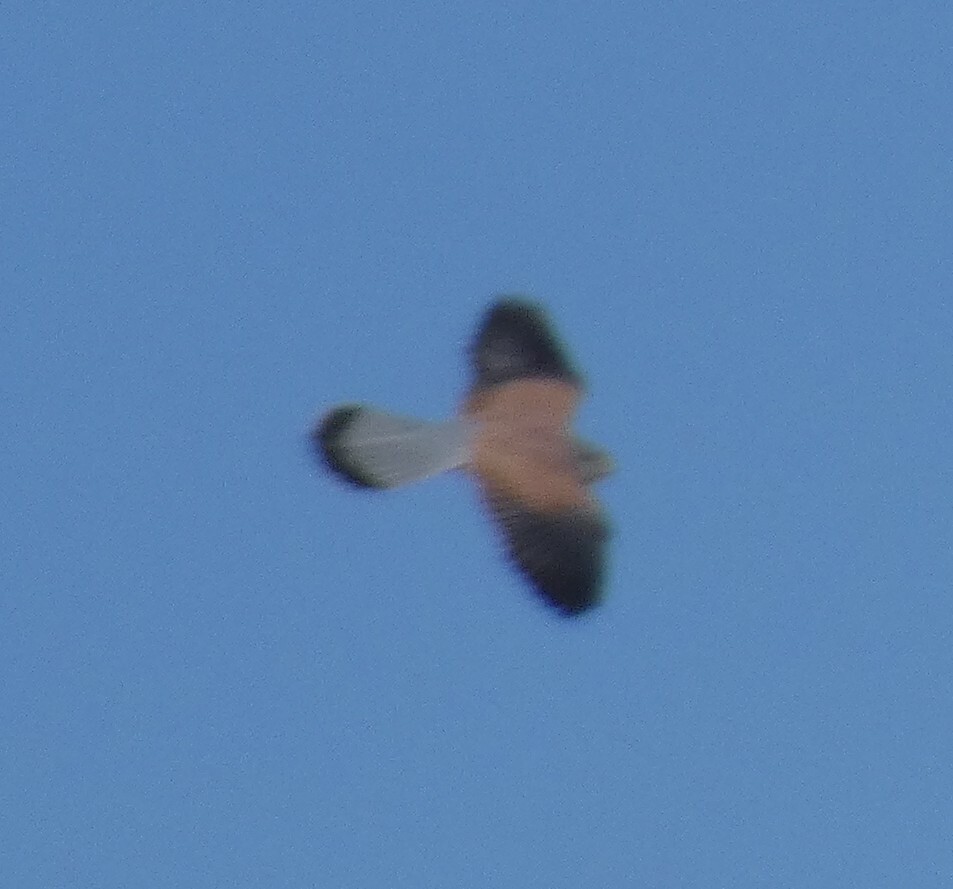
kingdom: Animalia
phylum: Chordata
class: Aves
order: Falconiformes
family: Falconidae
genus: Falco
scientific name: Falco tinnunculus
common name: Common kestrel
